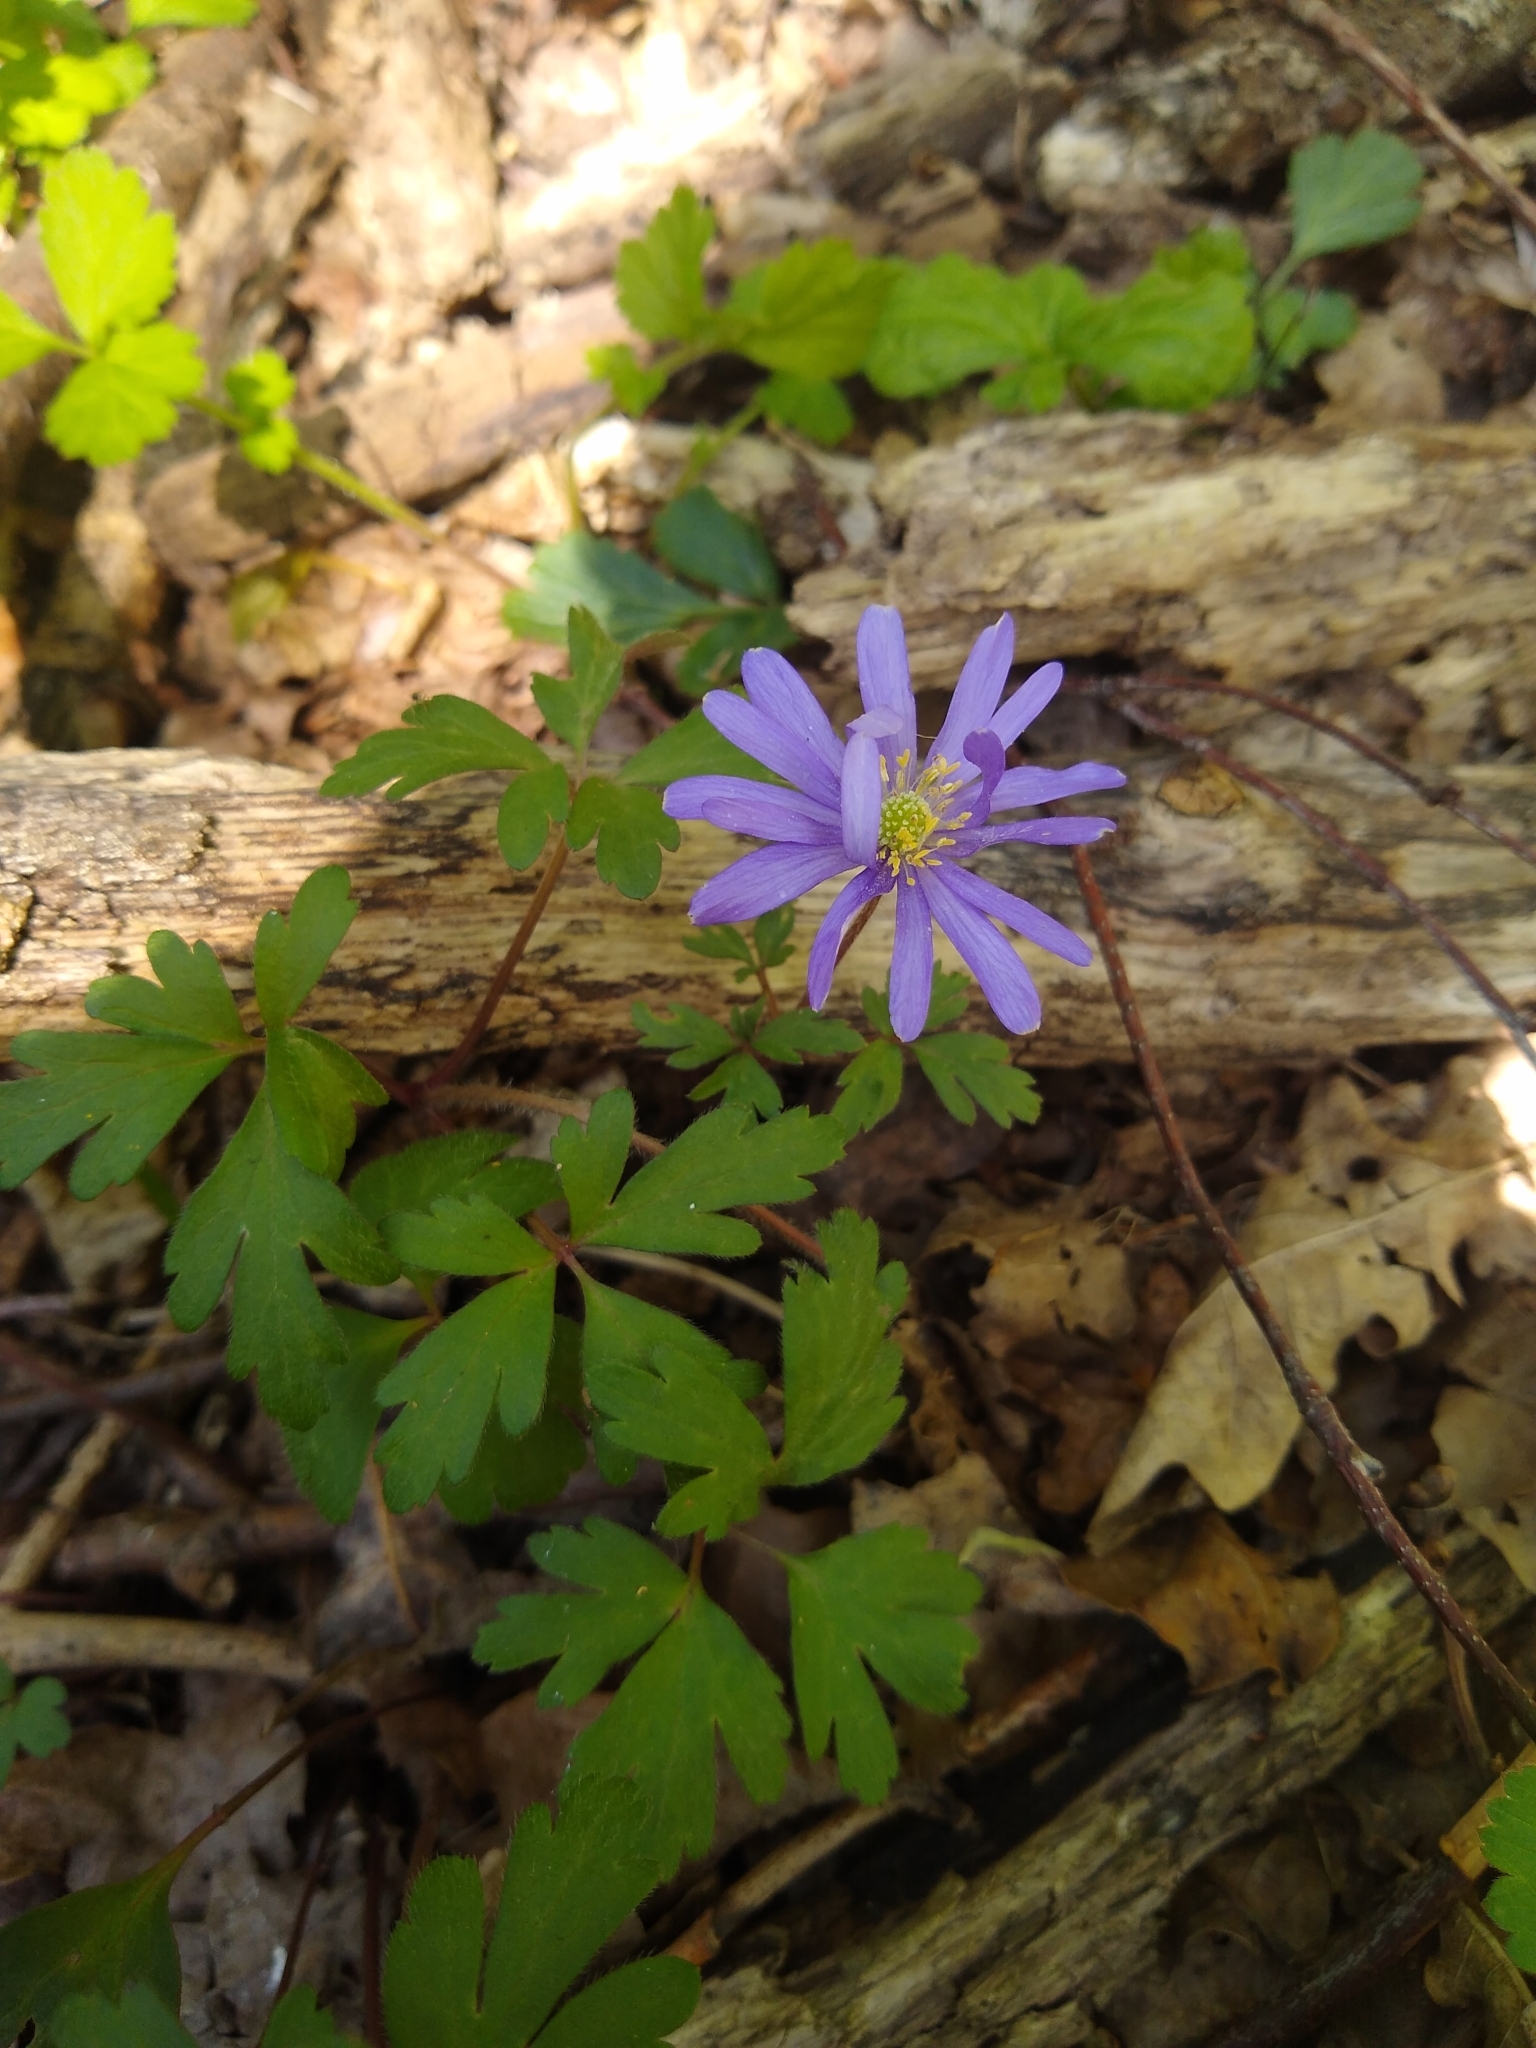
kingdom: Plantae
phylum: Tracheophyta
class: Magnoliopsida
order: Ranunculales
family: Ranunculaceae
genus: Anemone
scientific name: Anemone blanda
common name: Balkan anemone
